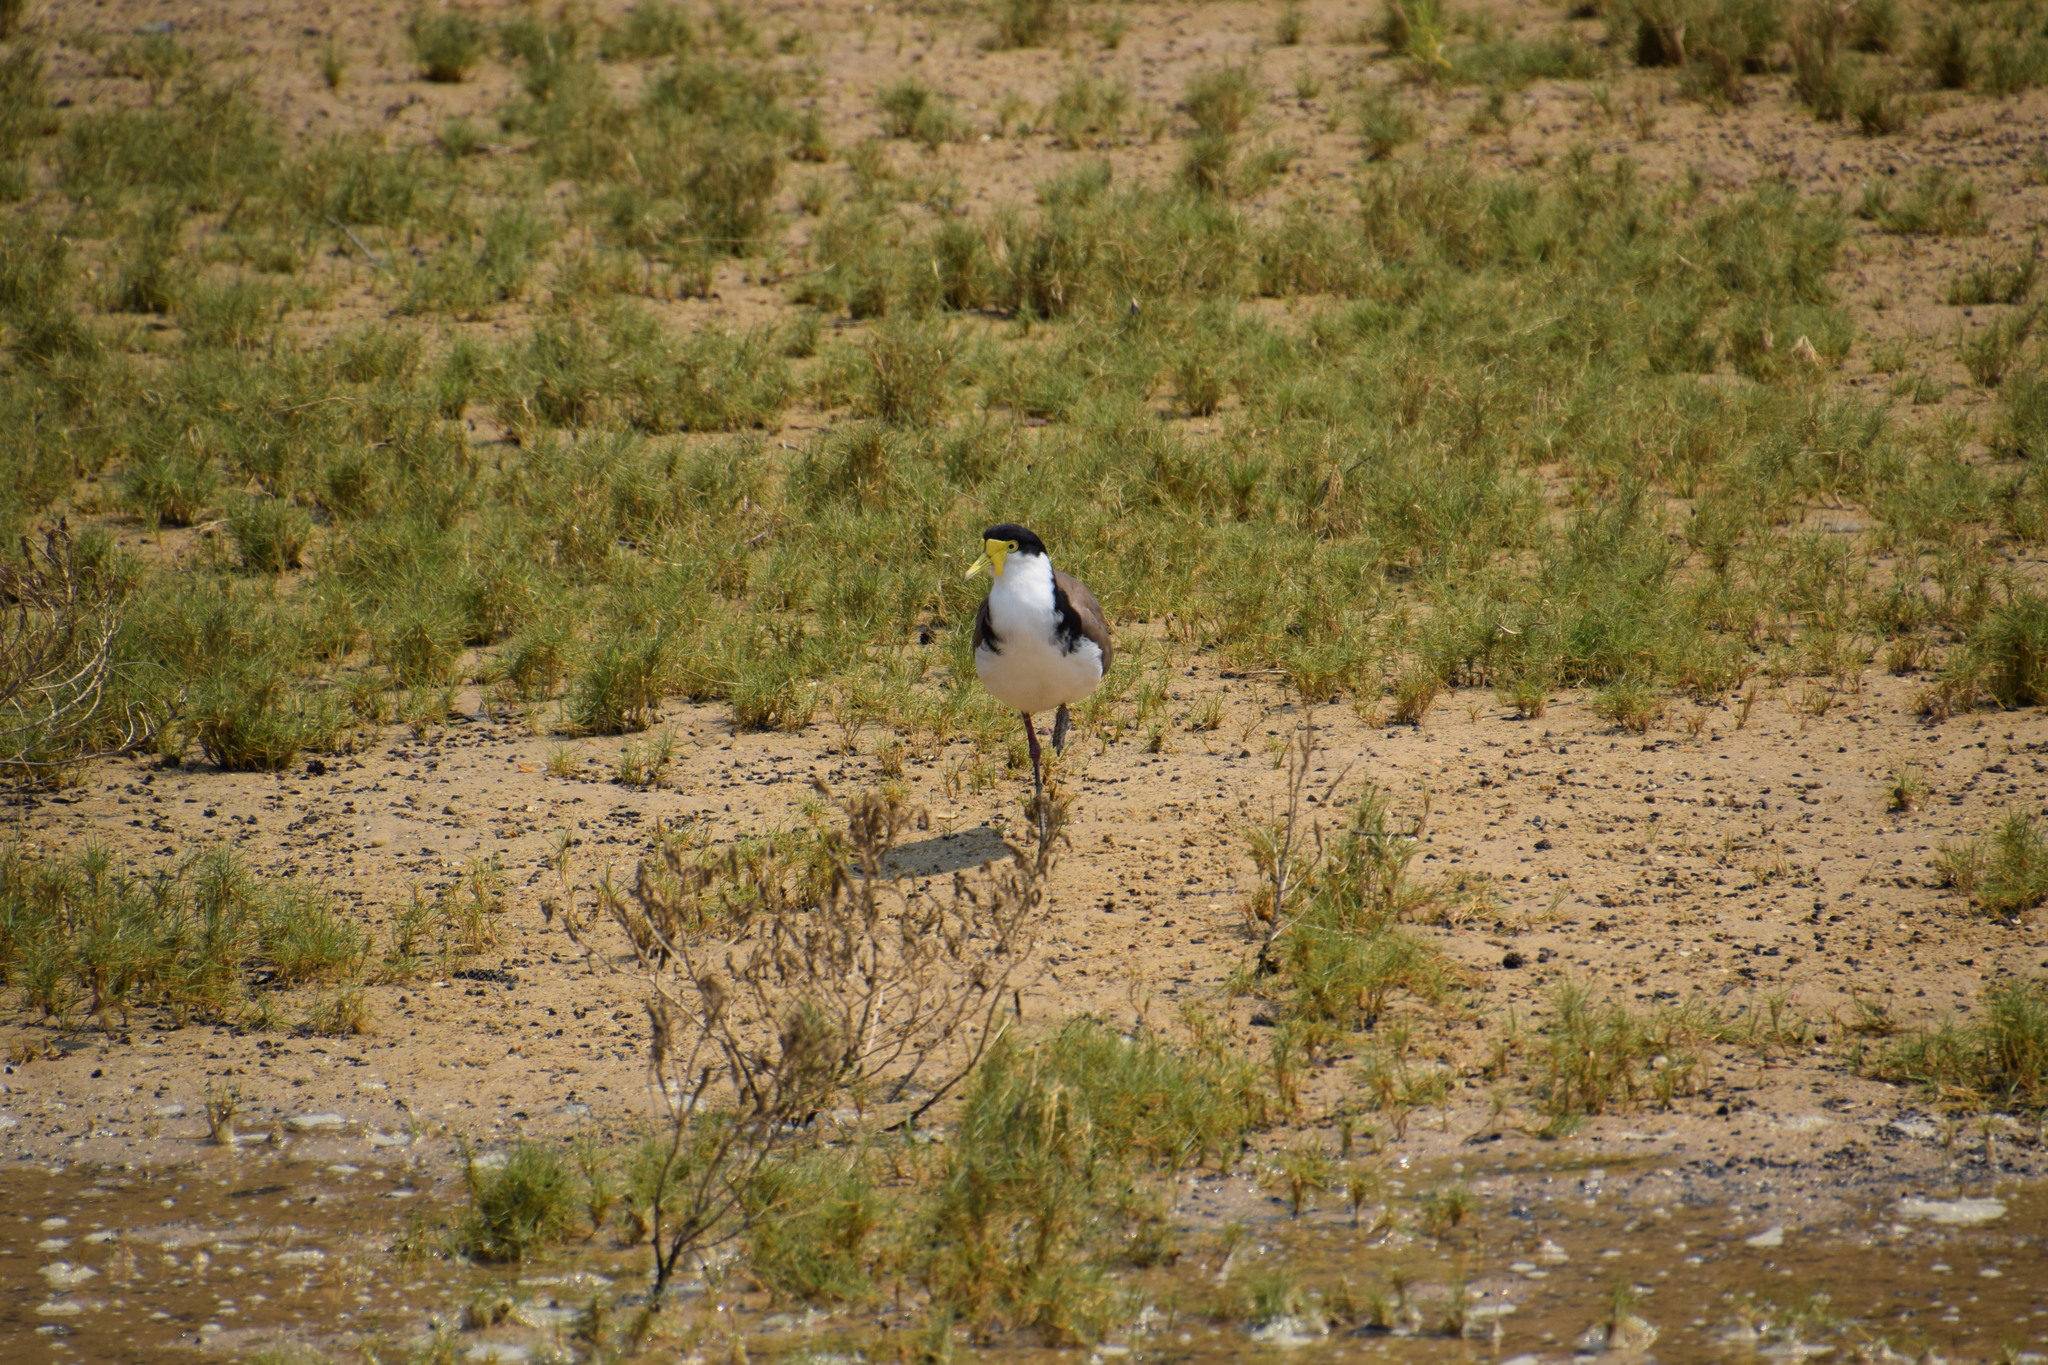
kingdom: Animalia
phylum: Chordata
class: Aves
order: Charadriiformes
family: Charadriidae
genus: Vanellus
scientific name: Vanellus miles
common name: Masked lapwing
